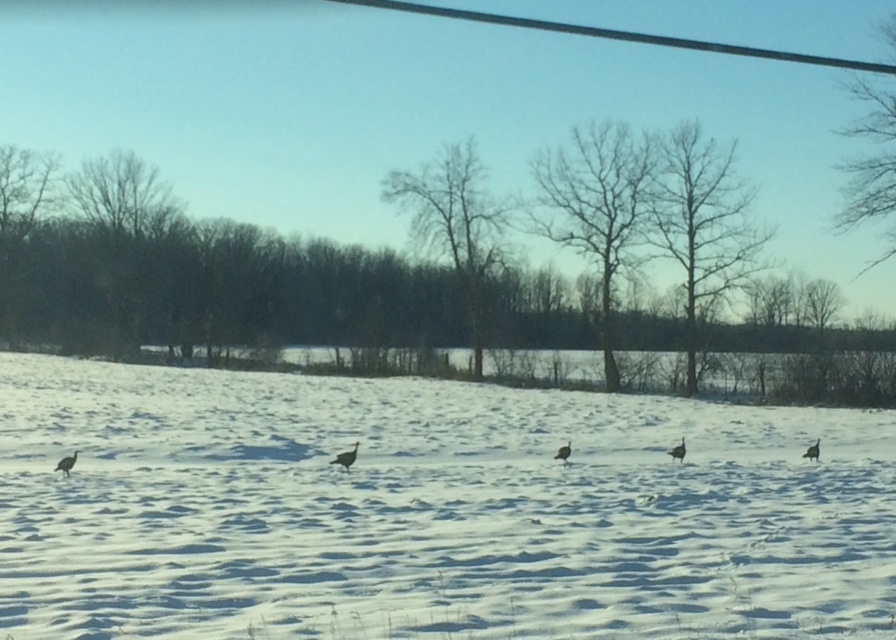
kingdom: Animalia
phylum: Chordata
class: Aves
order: Galliformes
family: Phasianidae
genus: Meleagris
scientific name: Meleagris gallopavo
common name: Wild turkey
